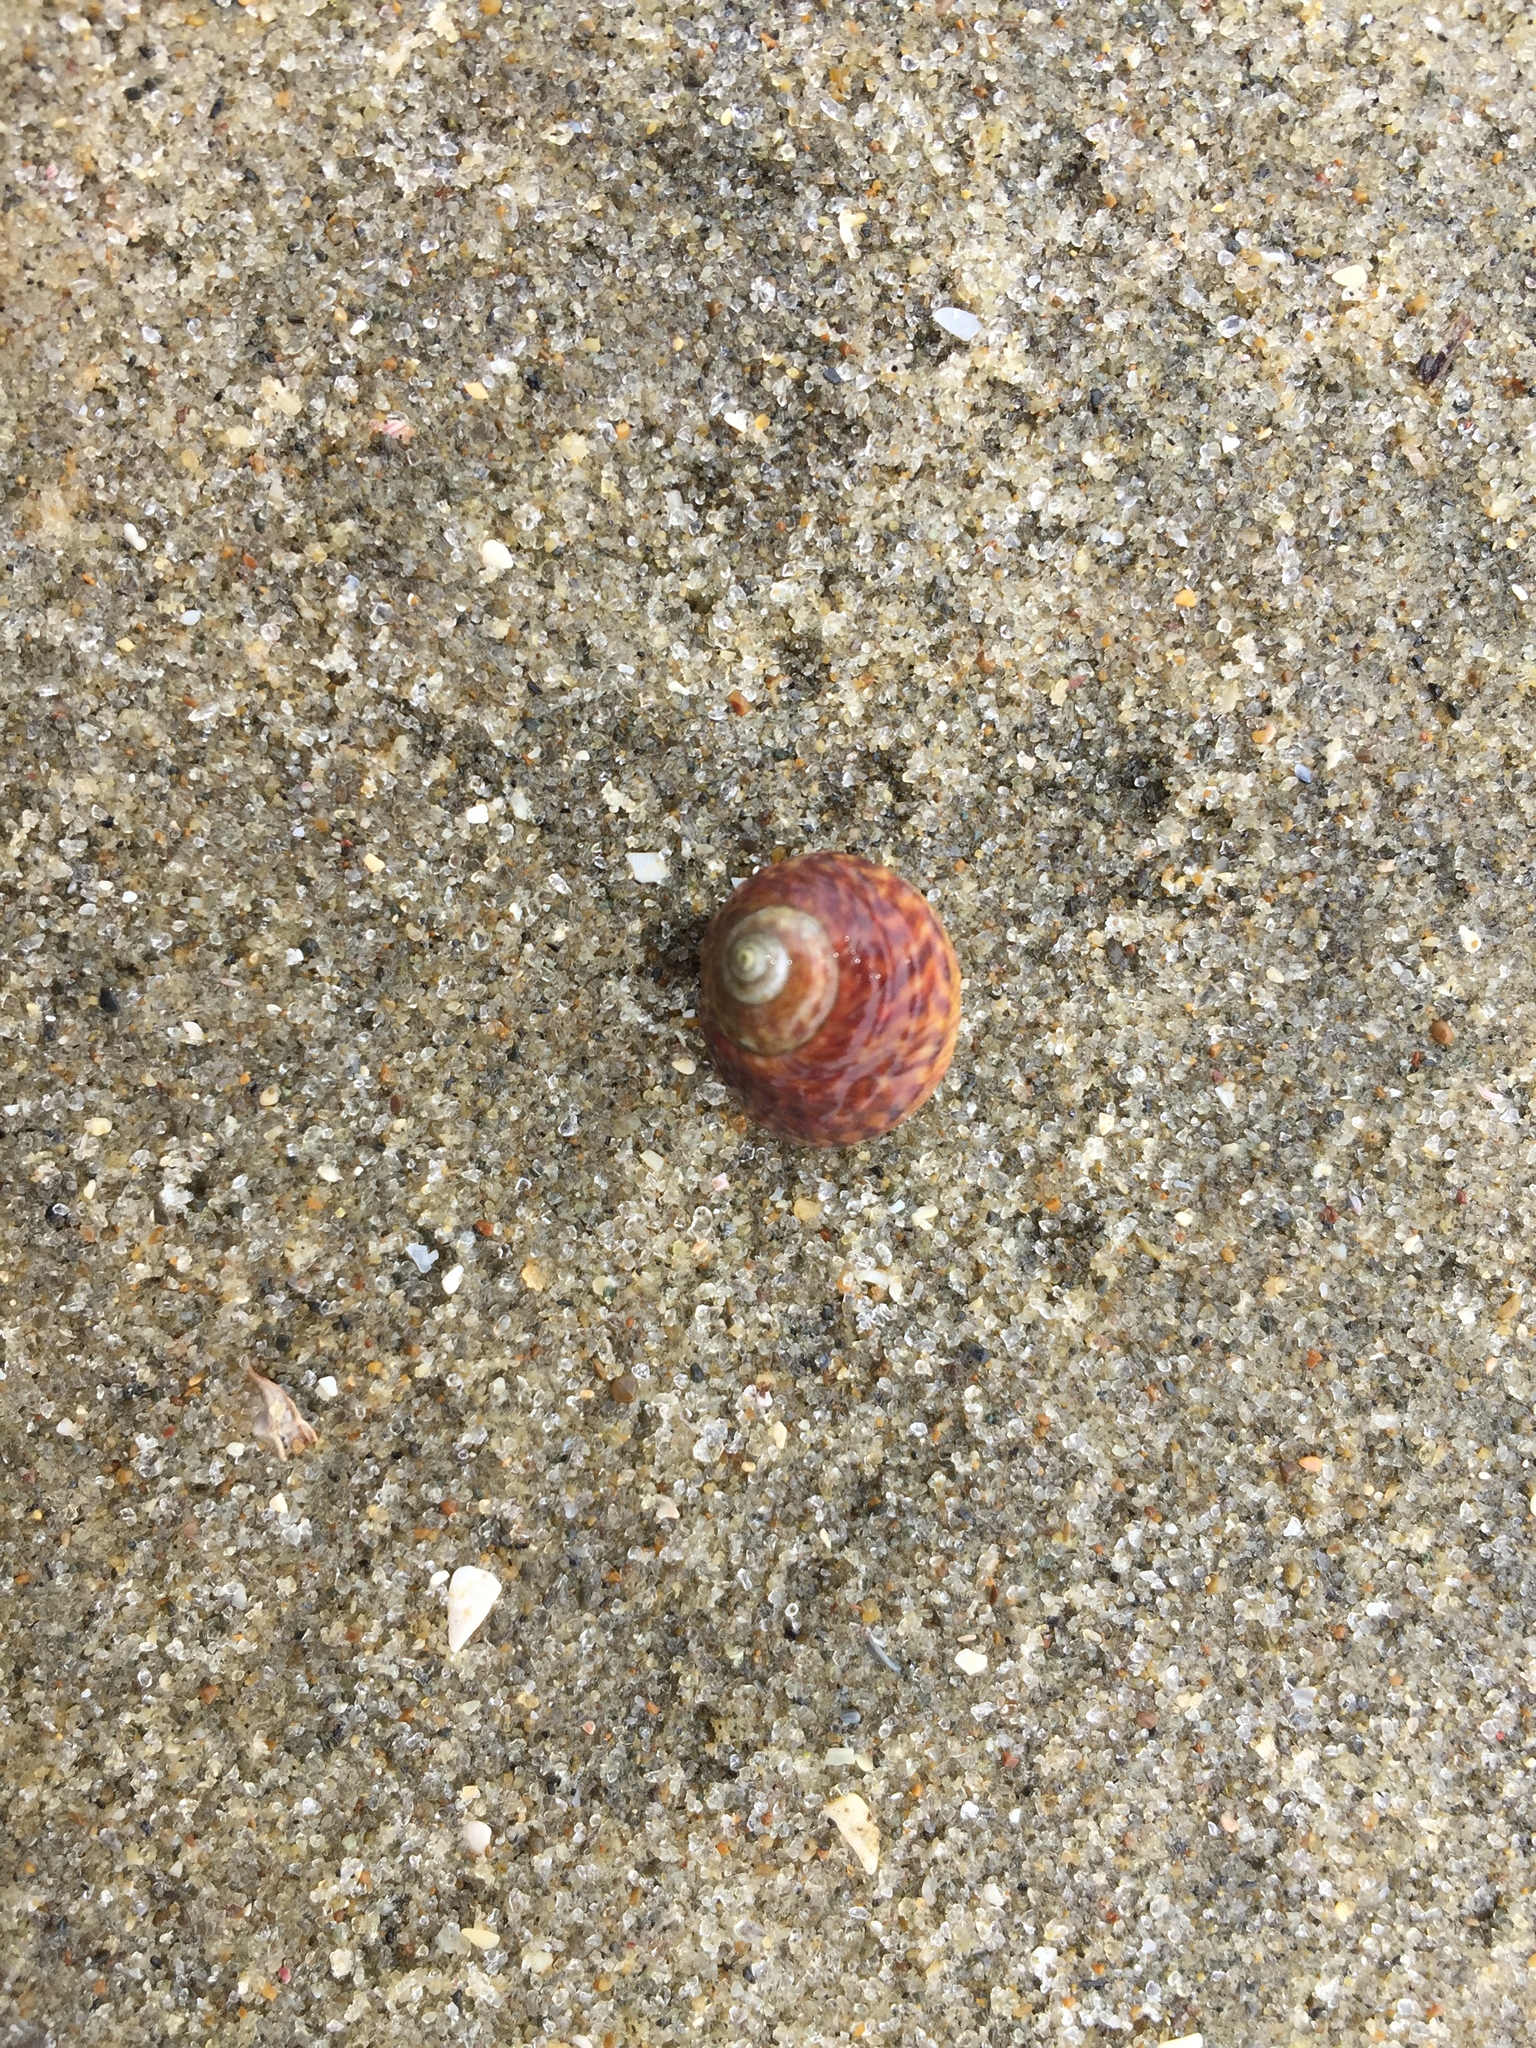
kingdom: Animalia
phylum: Mollusca
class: Gastropoda
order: Trochida
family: Trochidae
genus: Diloma
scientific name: Diloma subrostratum
